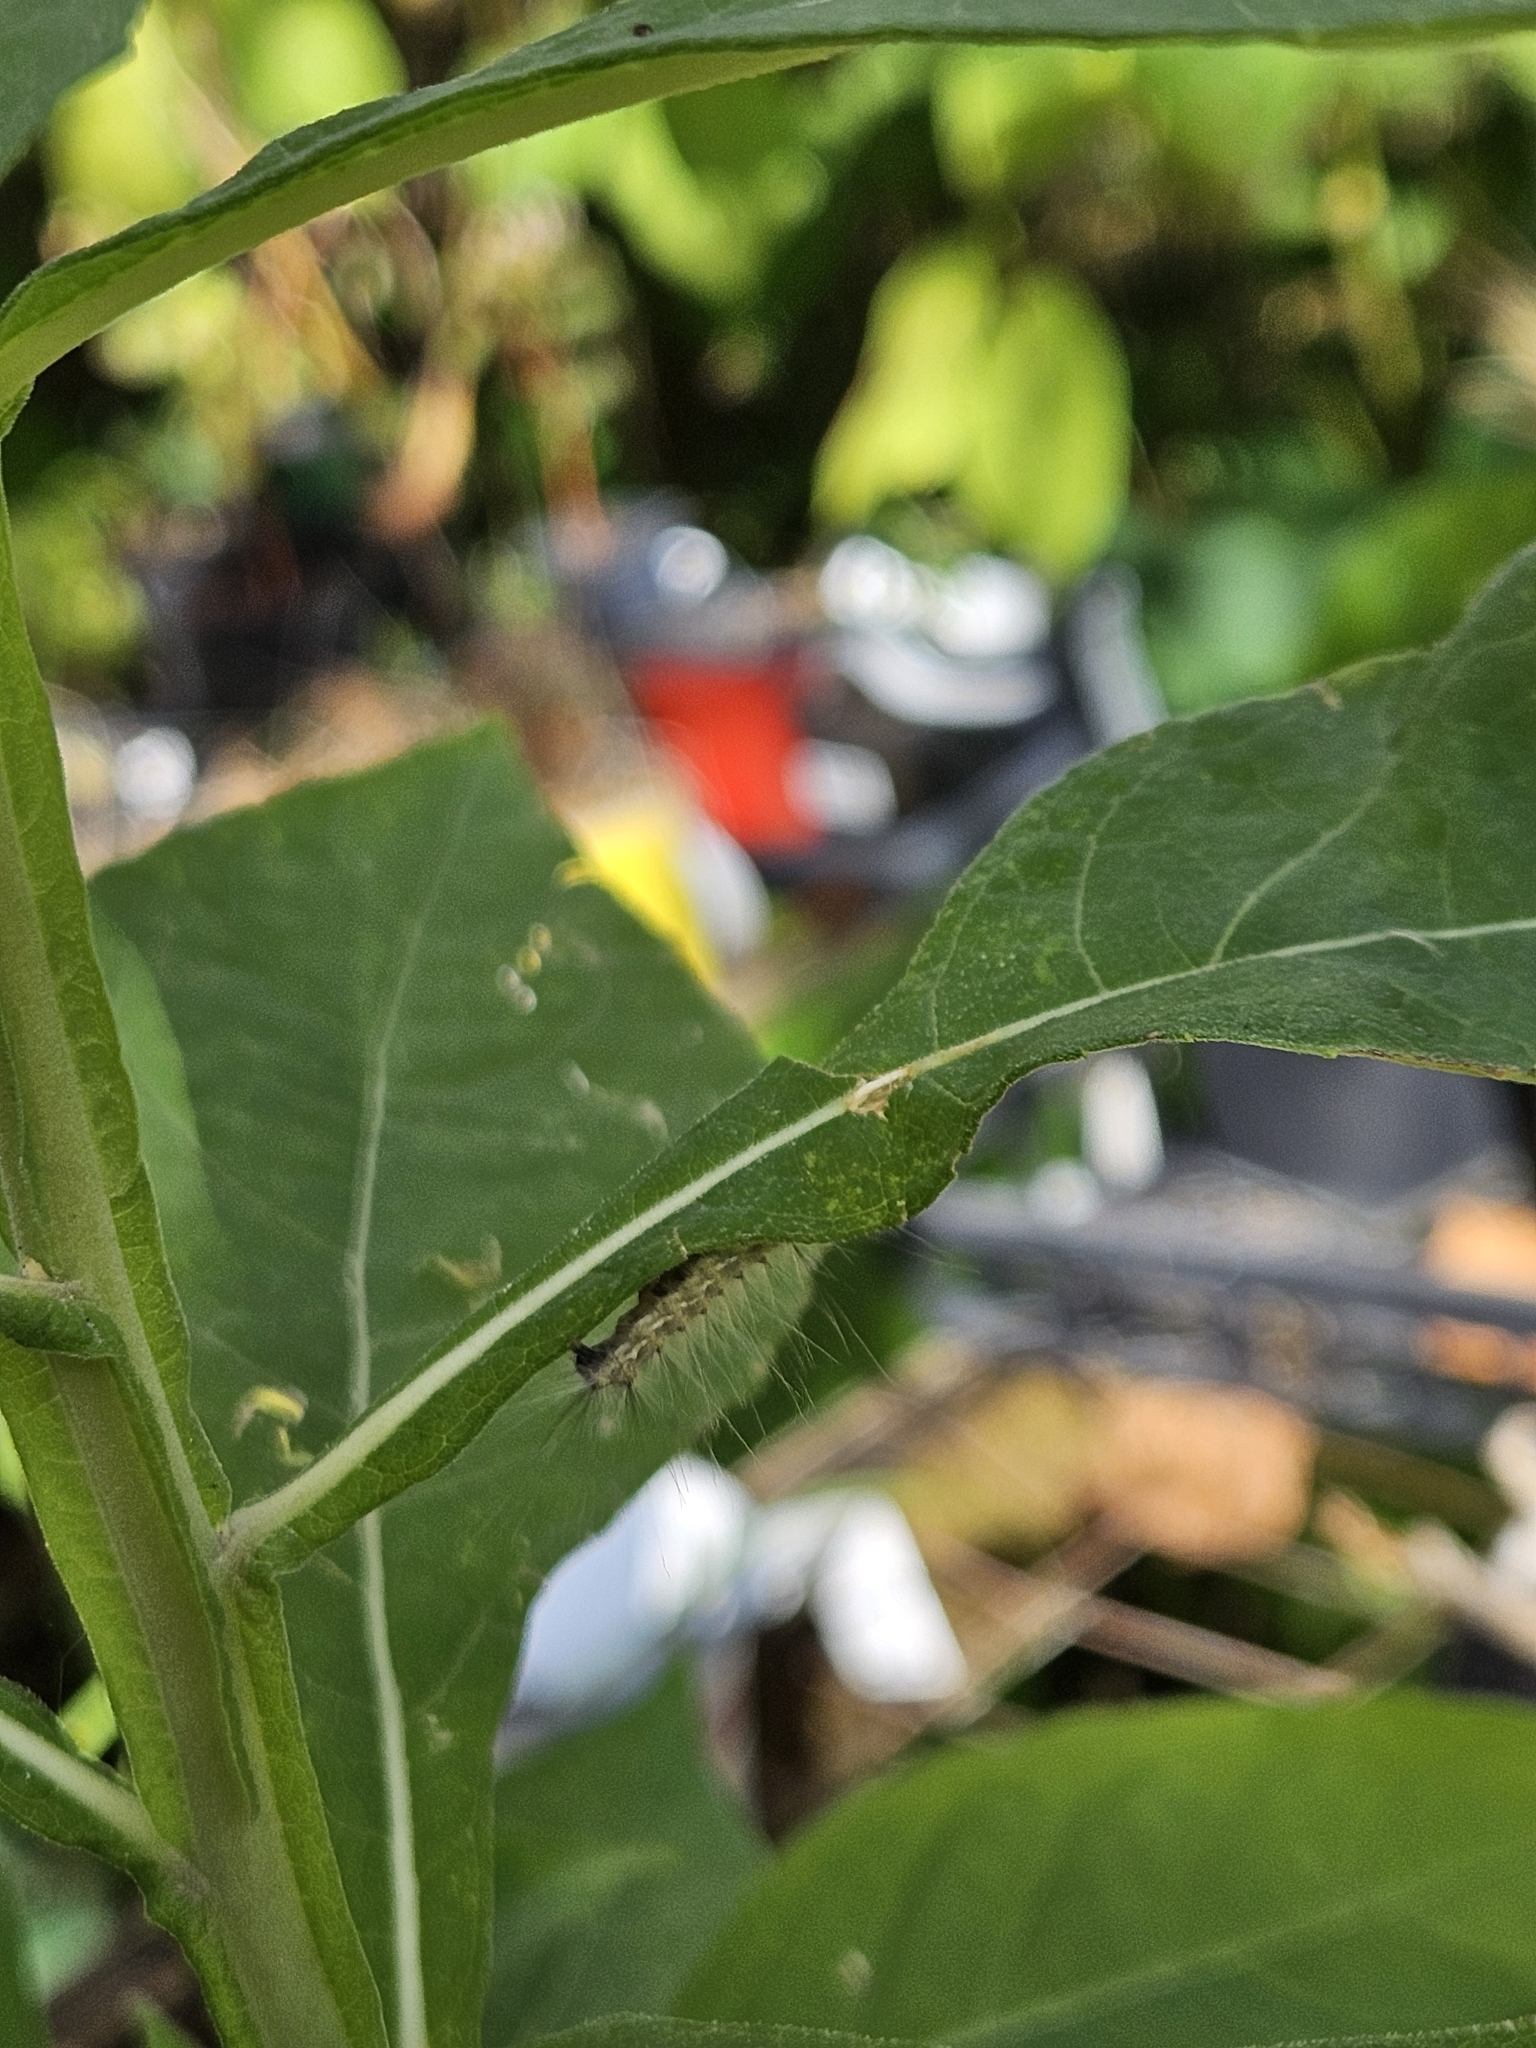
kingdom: Animalia
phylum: Arthropoda
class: Insecta
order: Lepidoptera
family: Erebidae
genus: Hyphantria
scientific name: Hyphantria cunea
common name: American white moth
